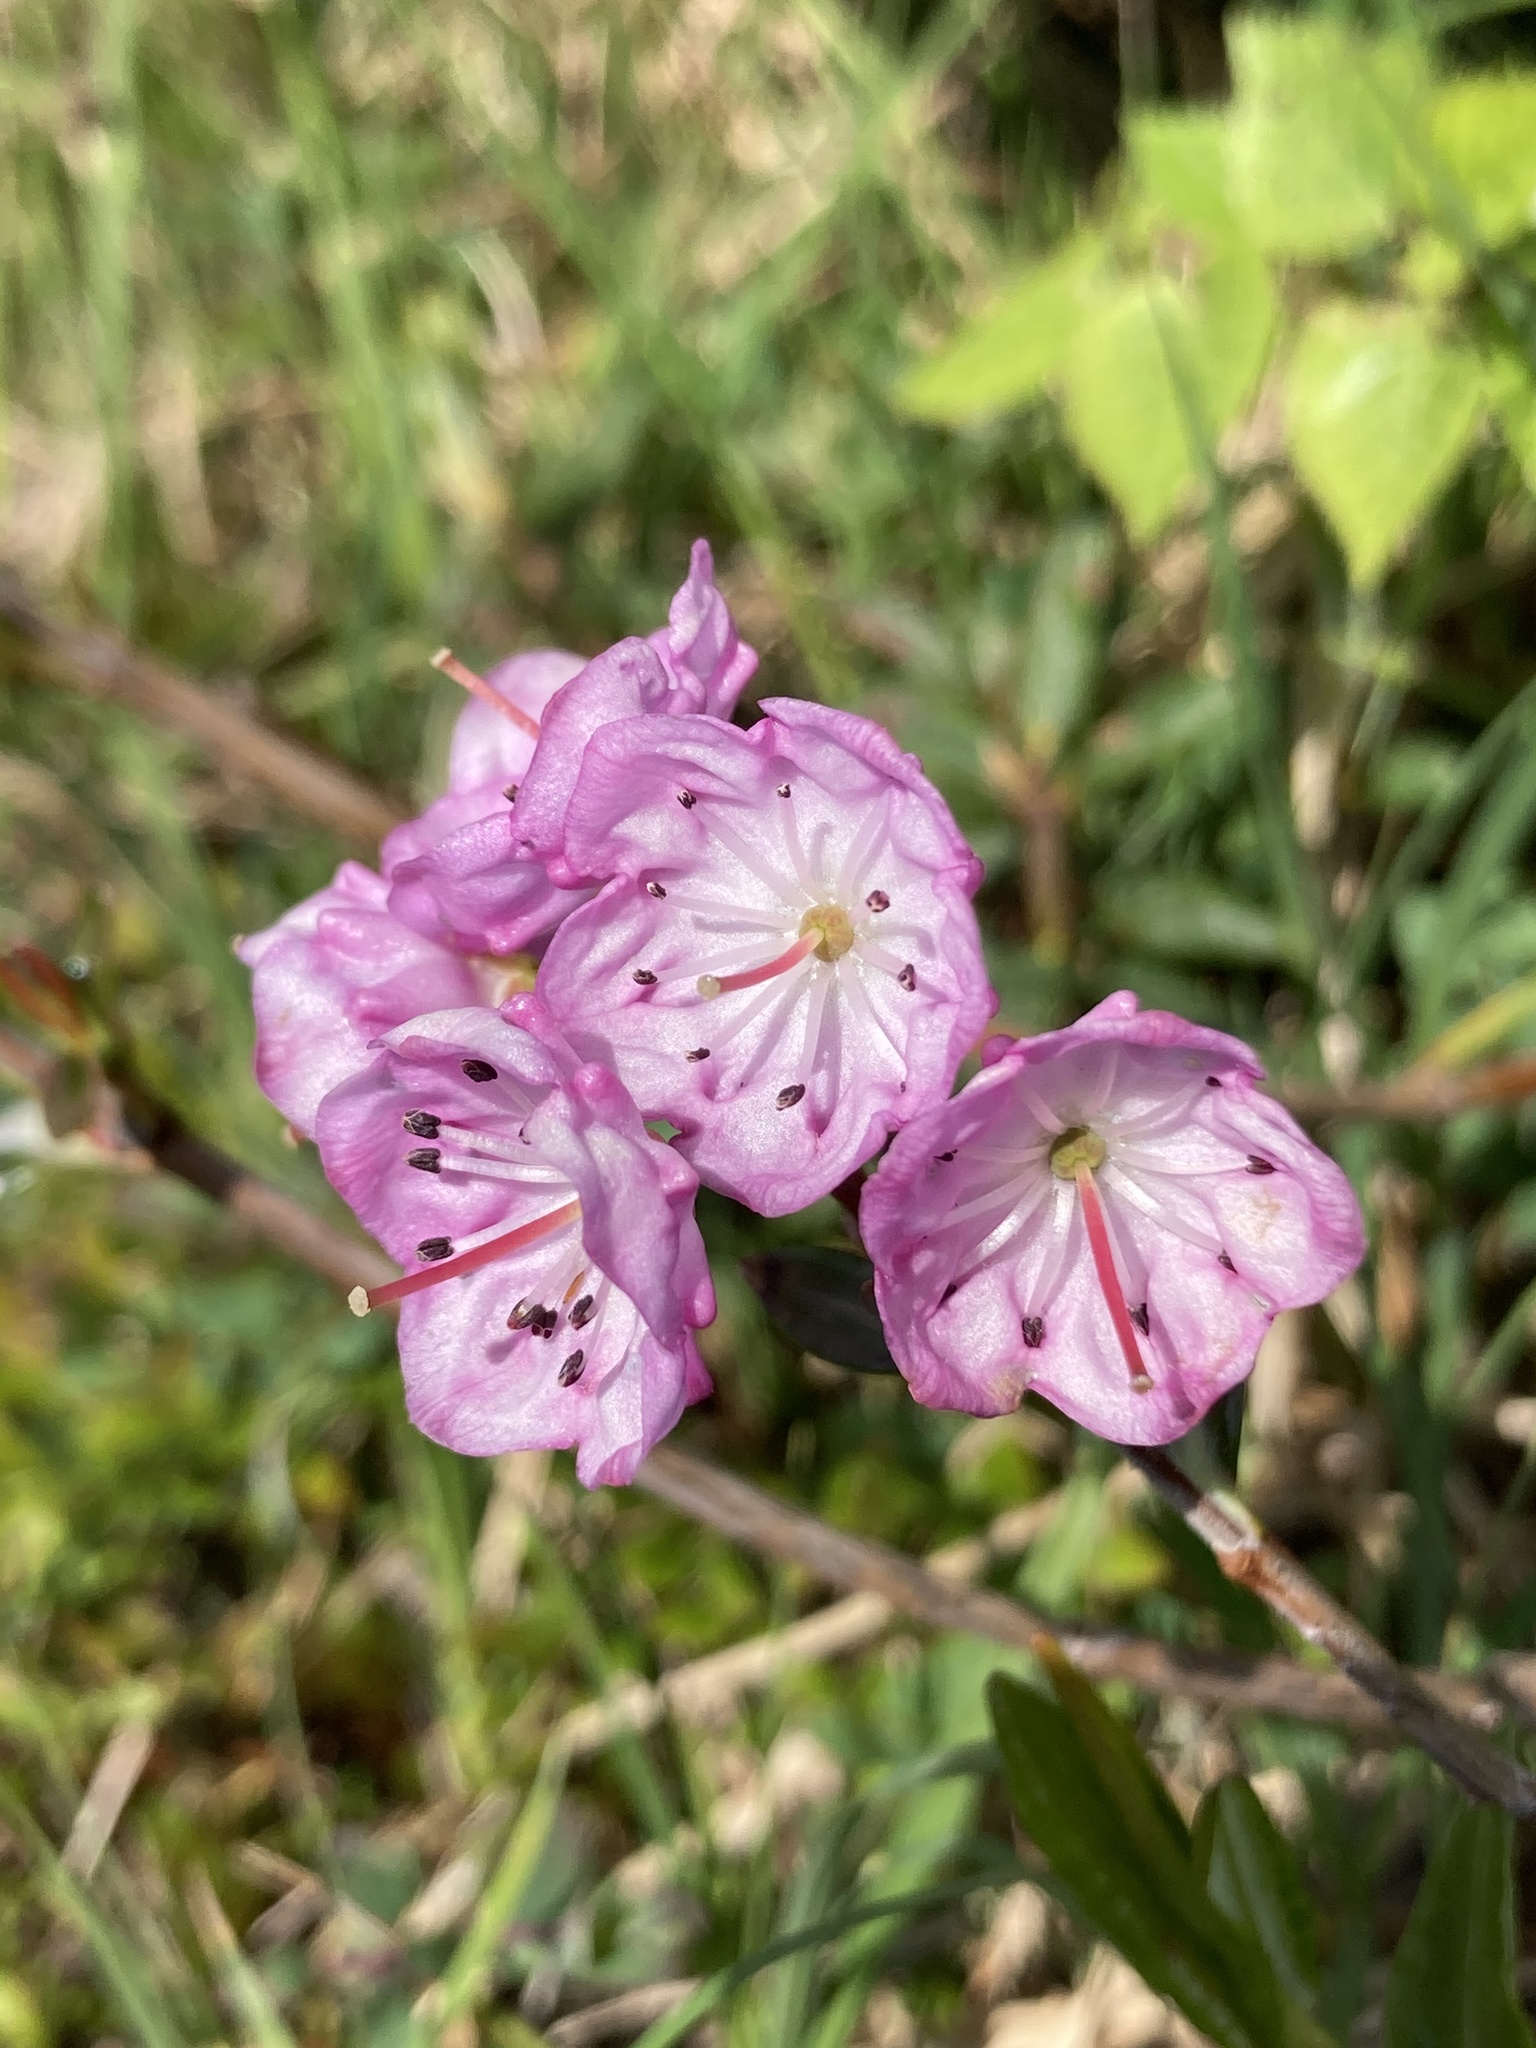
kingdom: Plantae
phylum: Tracheophyta
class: Magnoliopsida
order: Ericales
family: Ericaceae
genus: Kalmia
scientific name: Kalmia polifolia
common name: Bog-laurel
